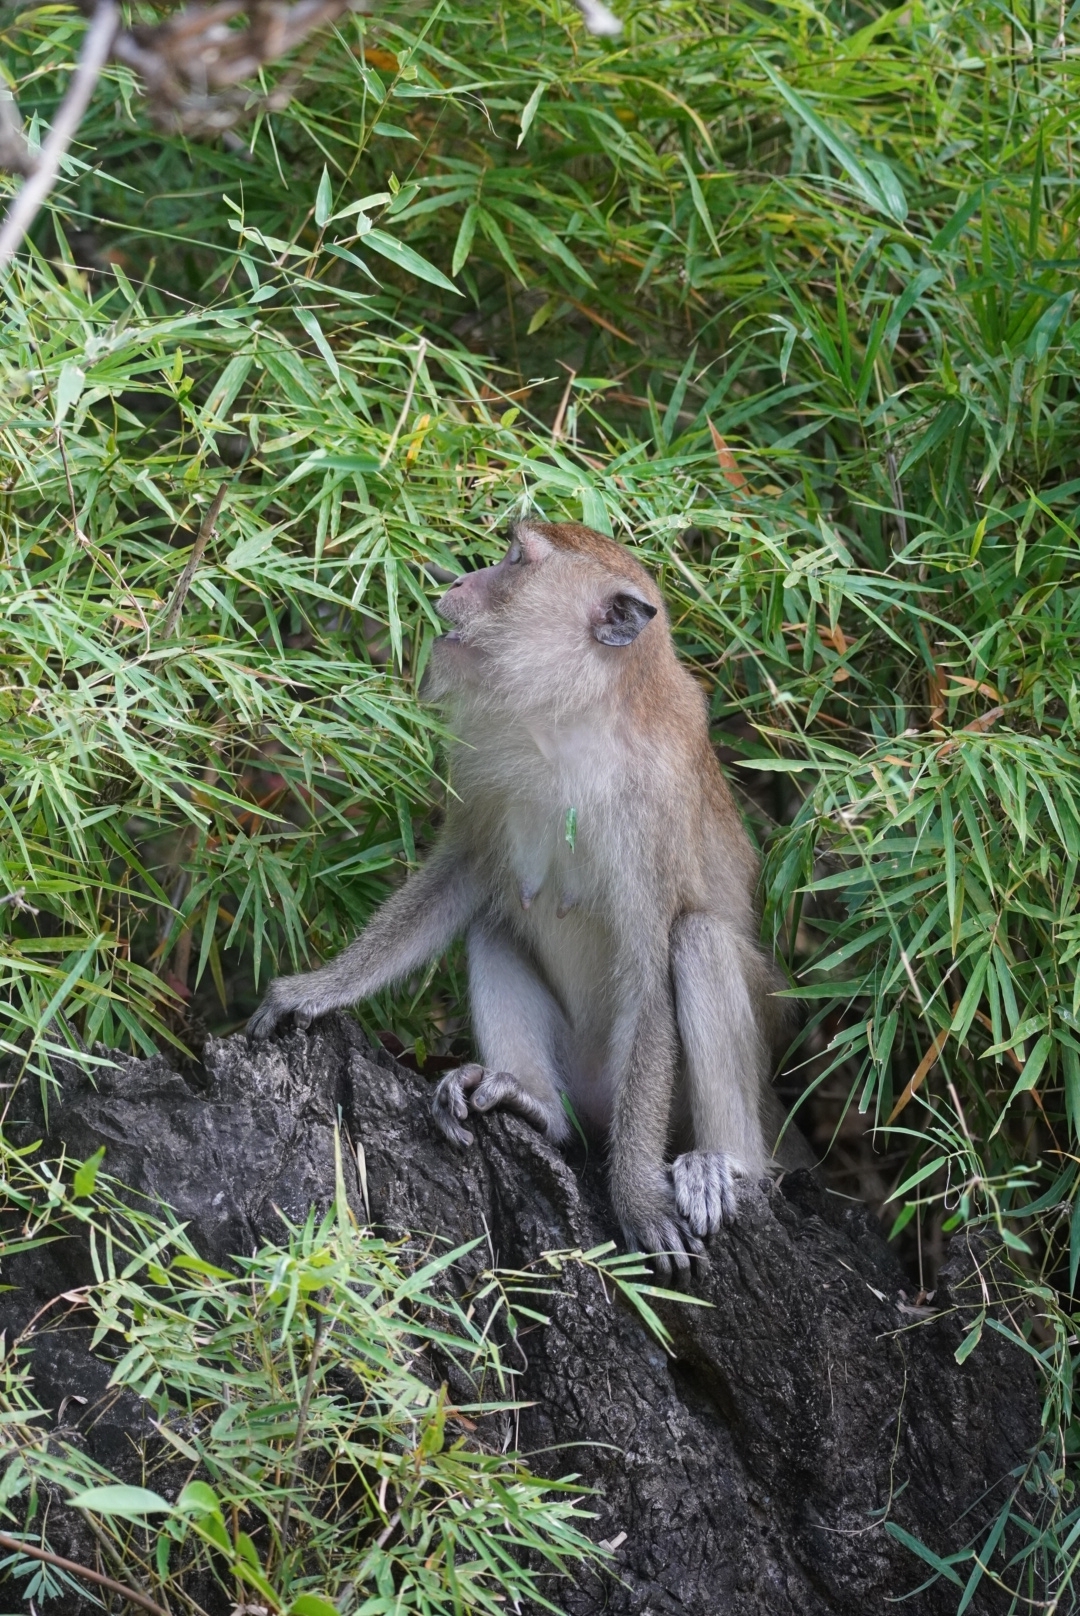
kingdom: Animalia
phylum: Chordata
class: Mammalia
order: Primates
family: Cercopithecidae
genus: Macaca
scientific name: Macaca fascicularis
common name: Crab-eating macaque
